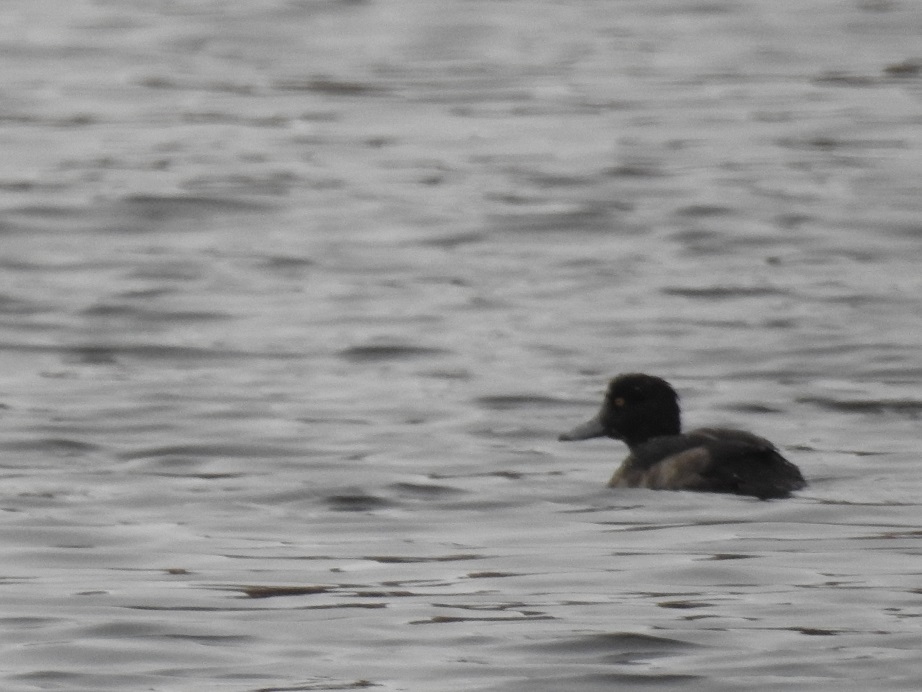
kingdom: Animalia
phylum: Chordata
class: Aves
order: Anseriformes
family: Anatidae
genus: Aythya
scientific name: Aythya fuligula
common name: Tufted duck
